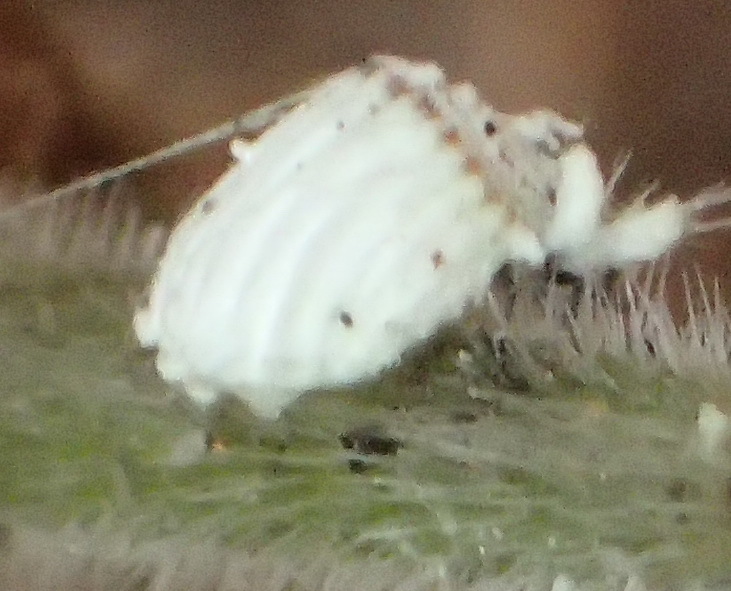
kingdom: Animalia
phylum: Arthropoda
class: Insecta
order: Hemiptera
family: Margarodidae
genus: Icerya
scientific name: Icerya purchasi
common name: Cottony cushion scale
